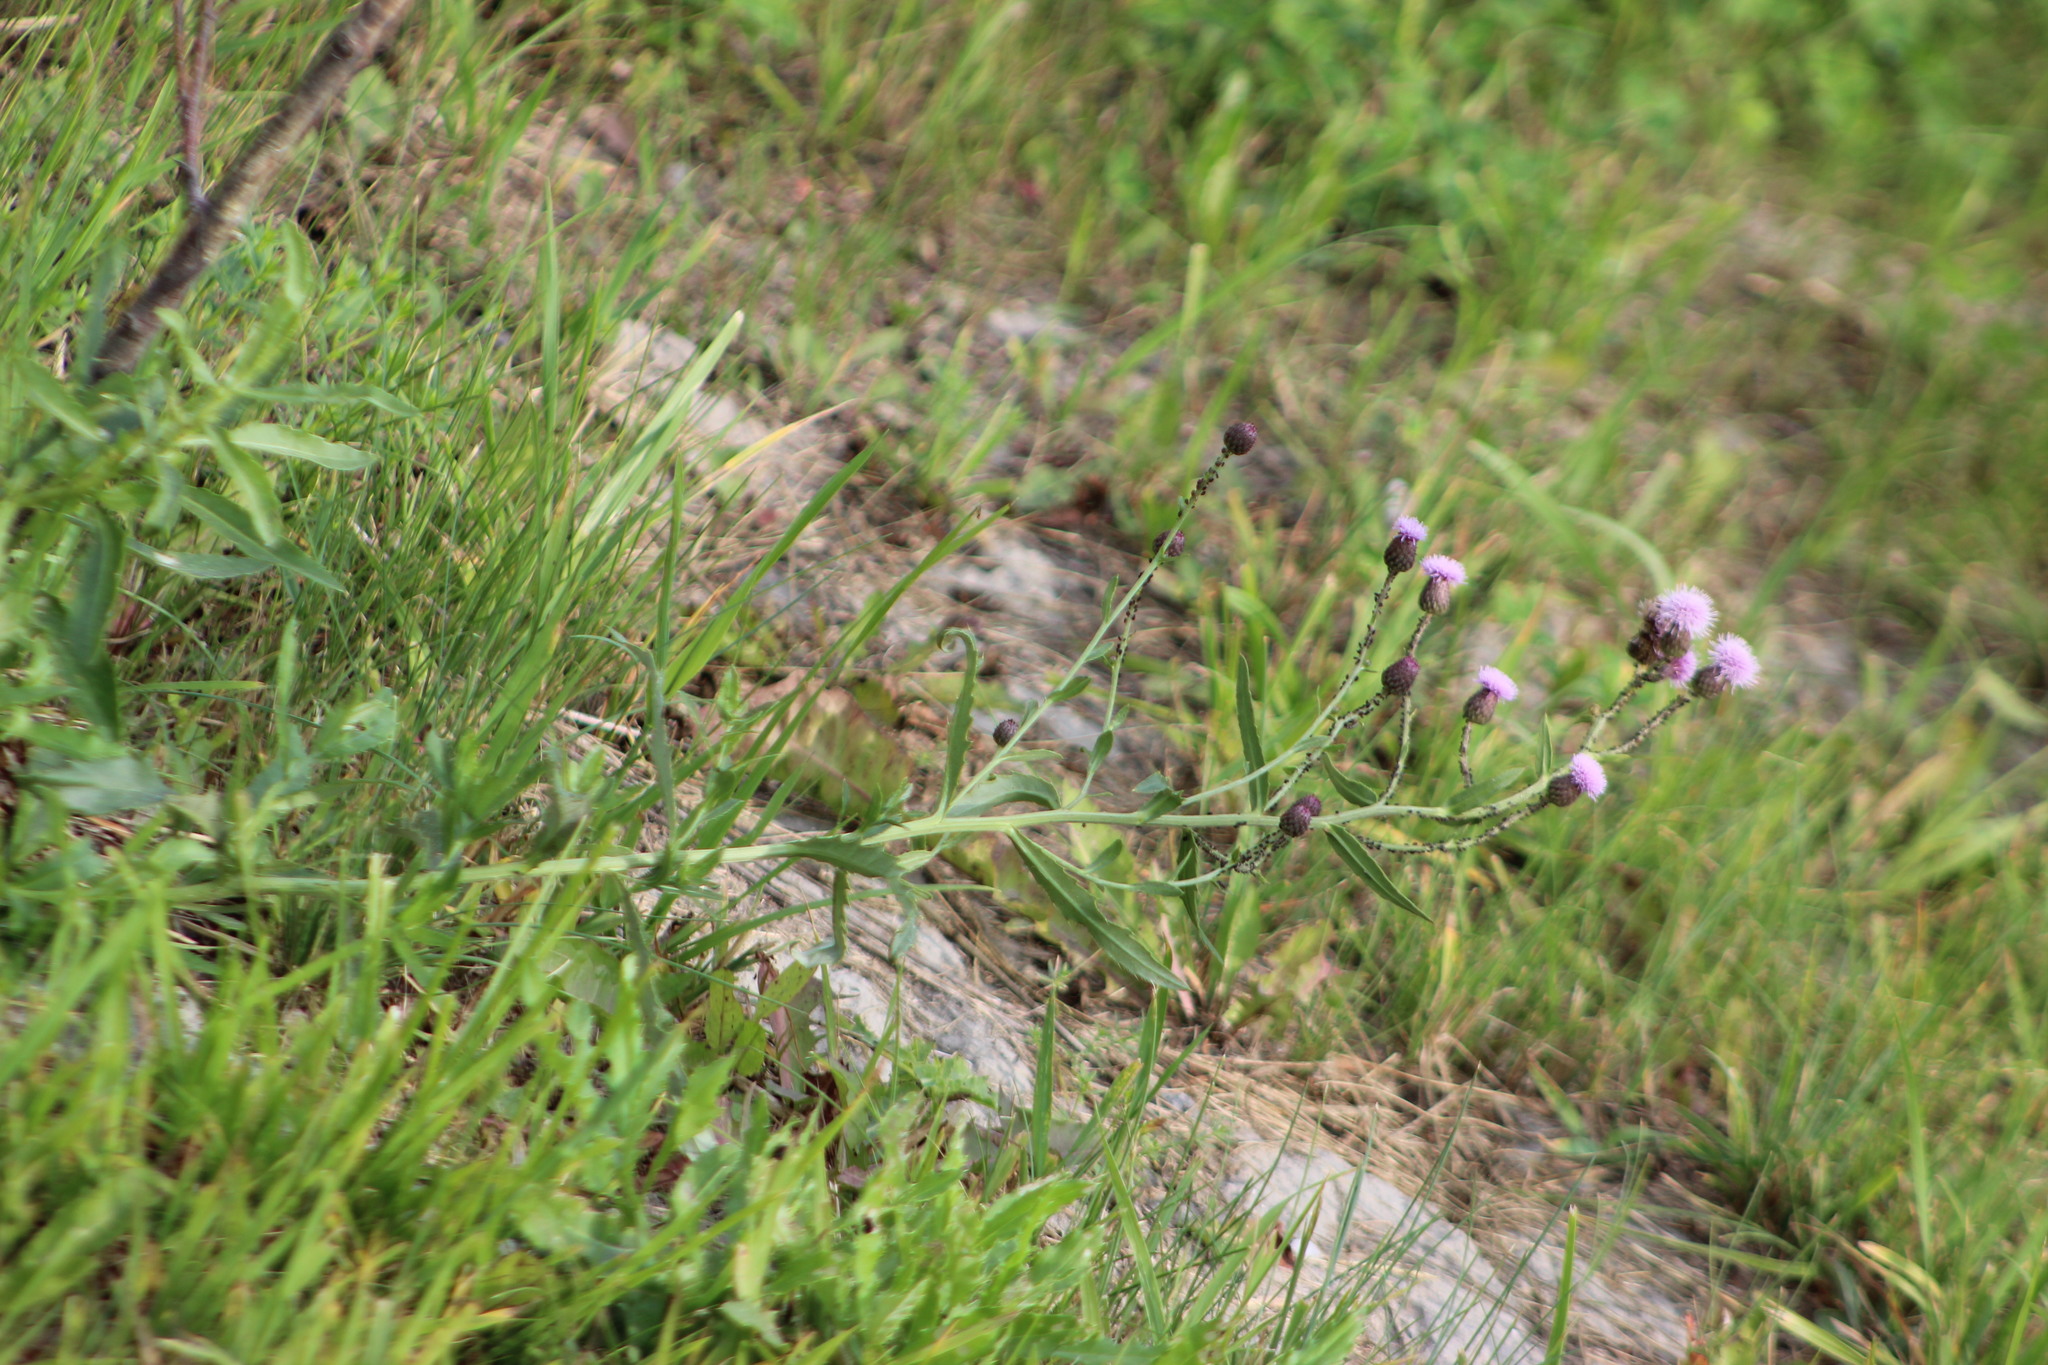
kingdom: Plantae
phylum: Tracheophyta
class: Magnoliopsida
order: Asterales
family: Asteraceae
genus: Cirsium
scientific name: Cirsium arvense
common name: Creeping thistle
